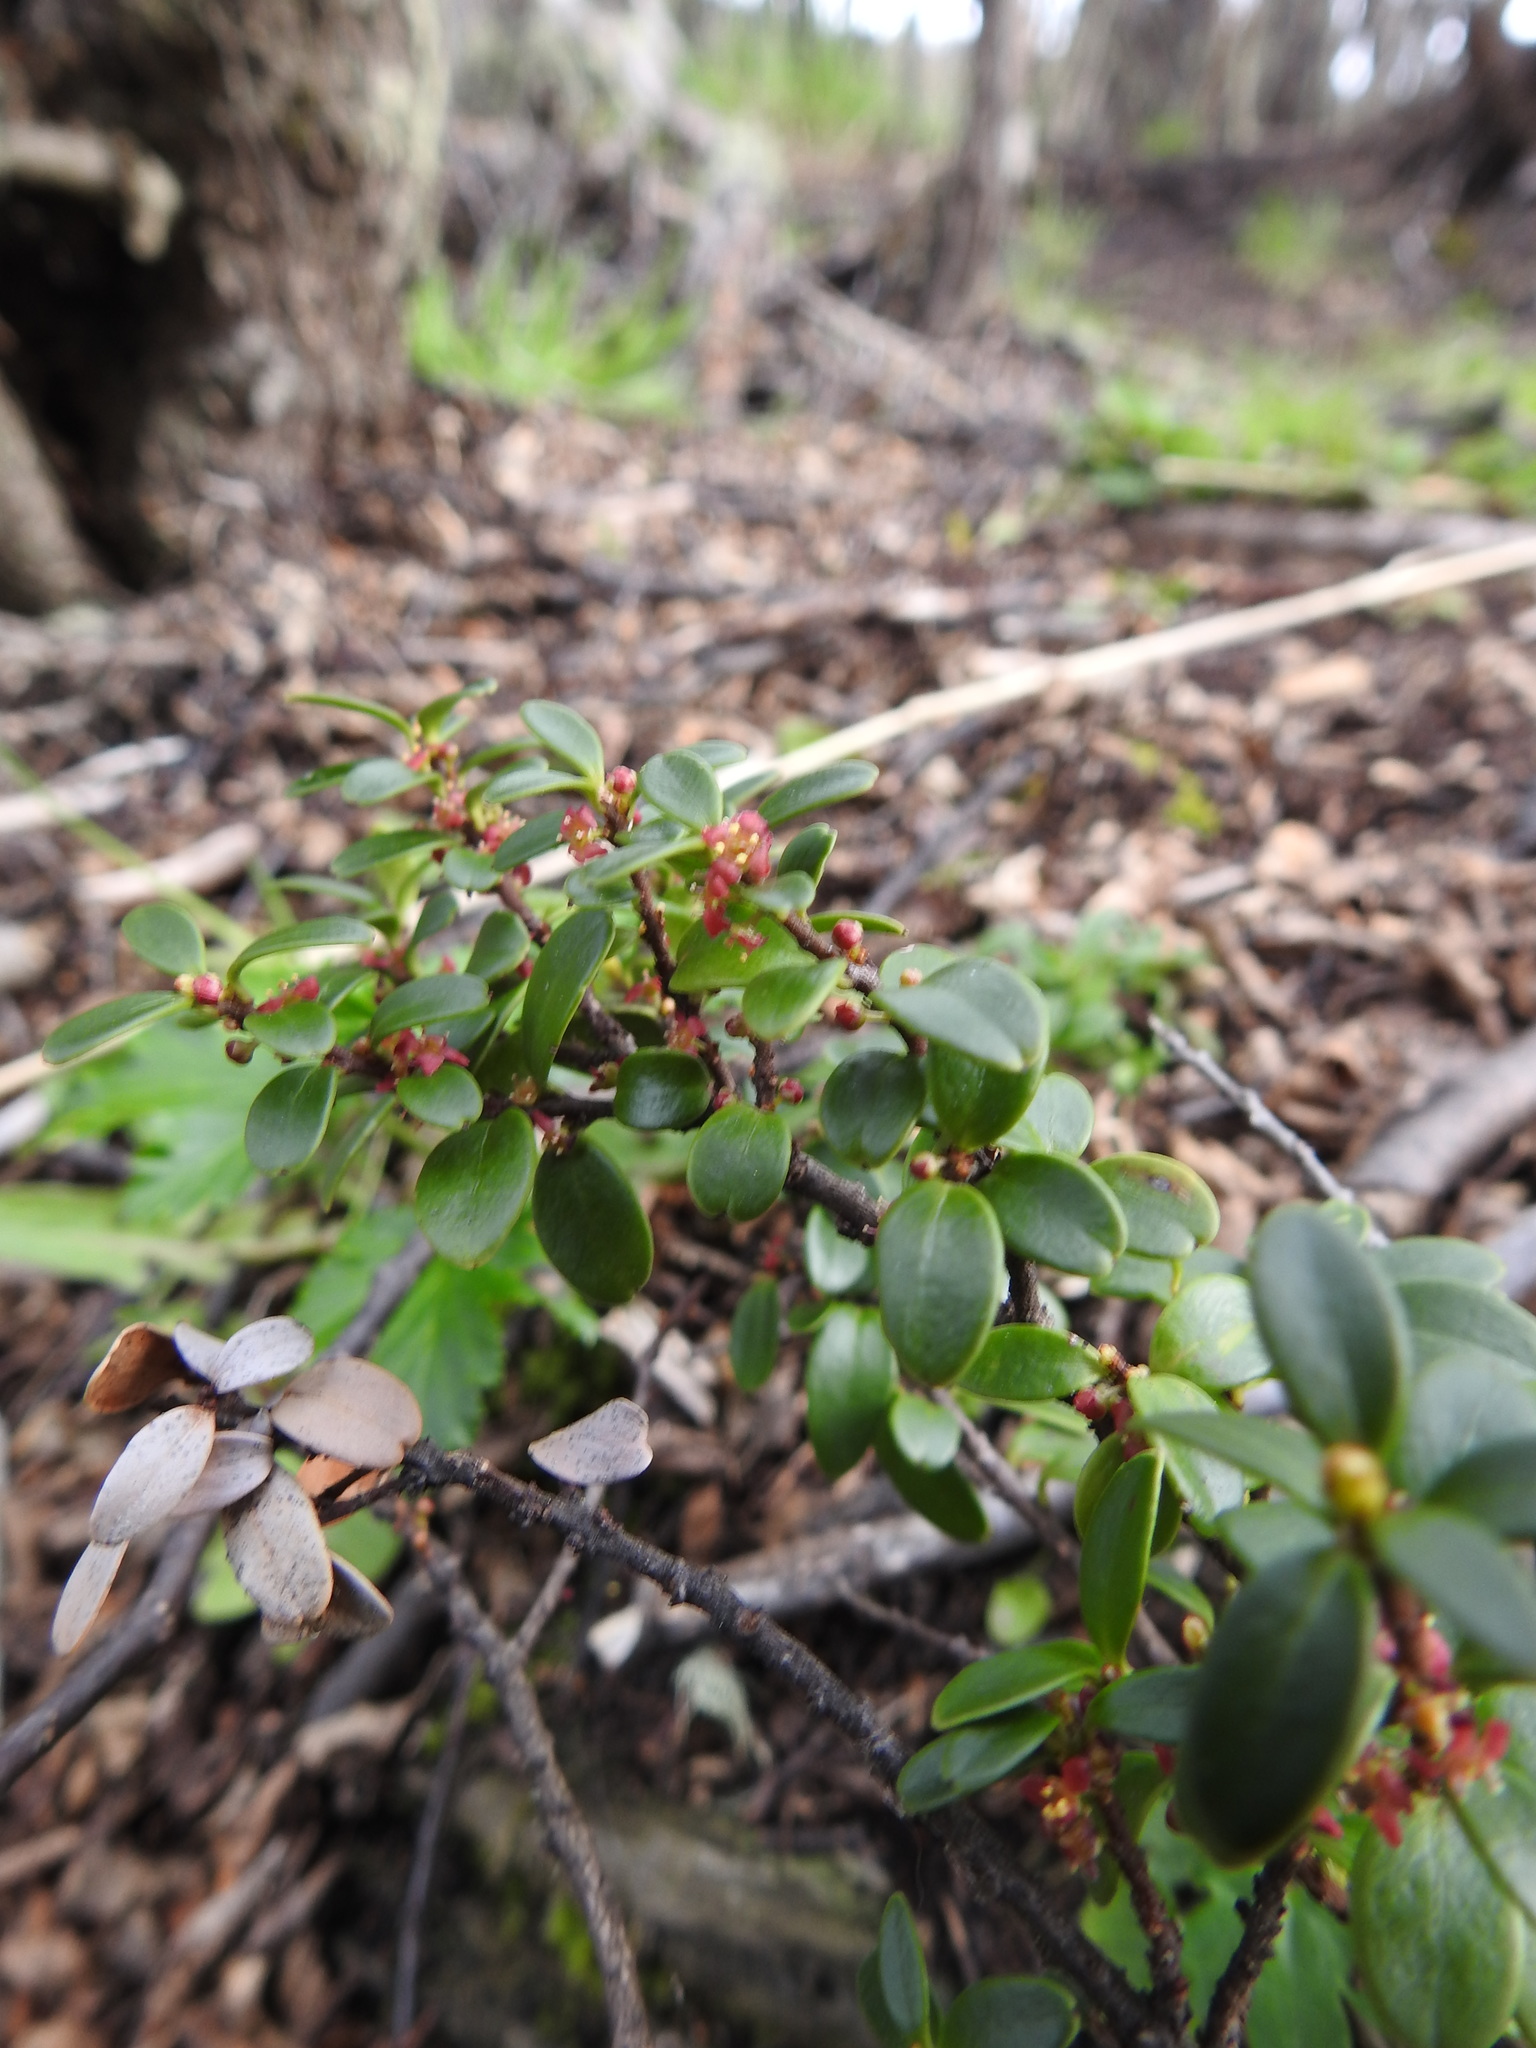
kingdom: Plantae
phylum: Tracheophyta
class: Magnoliopsida
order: Celastrales
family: Celastraceae
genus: Maytenus
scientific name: Maytenus disticha
